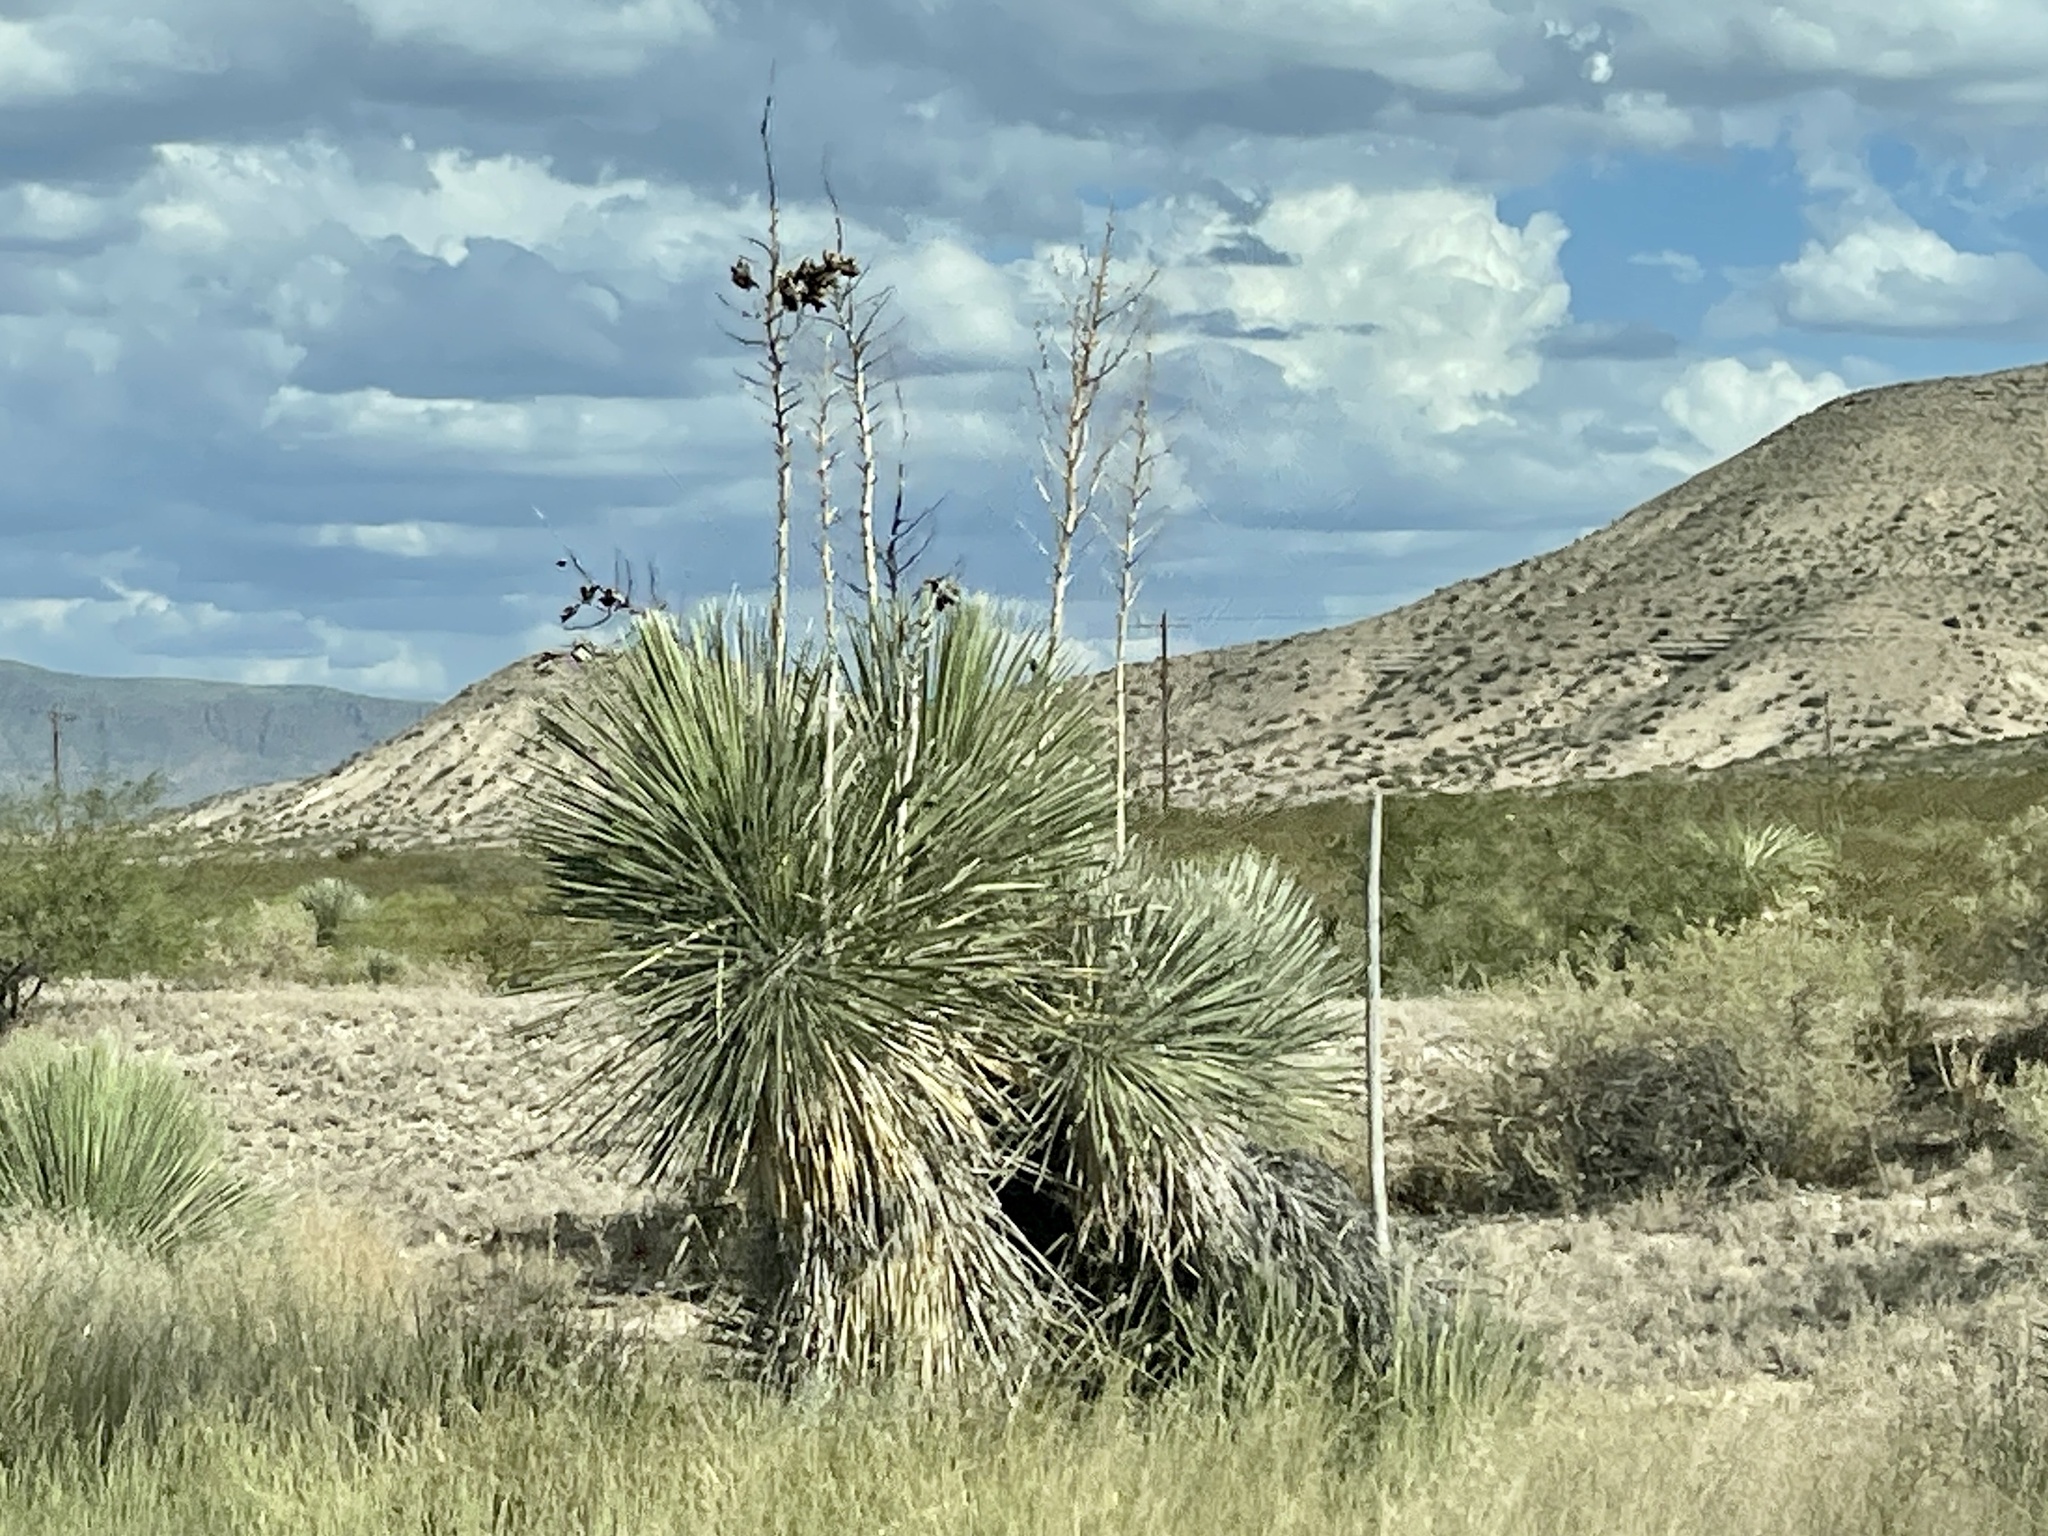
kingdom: Plantae
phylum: Tracheophyta
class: Liliopsida
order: Asparagales
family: Asparagaceae
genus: Yucca
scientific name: Yucca elata
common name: Palmella
